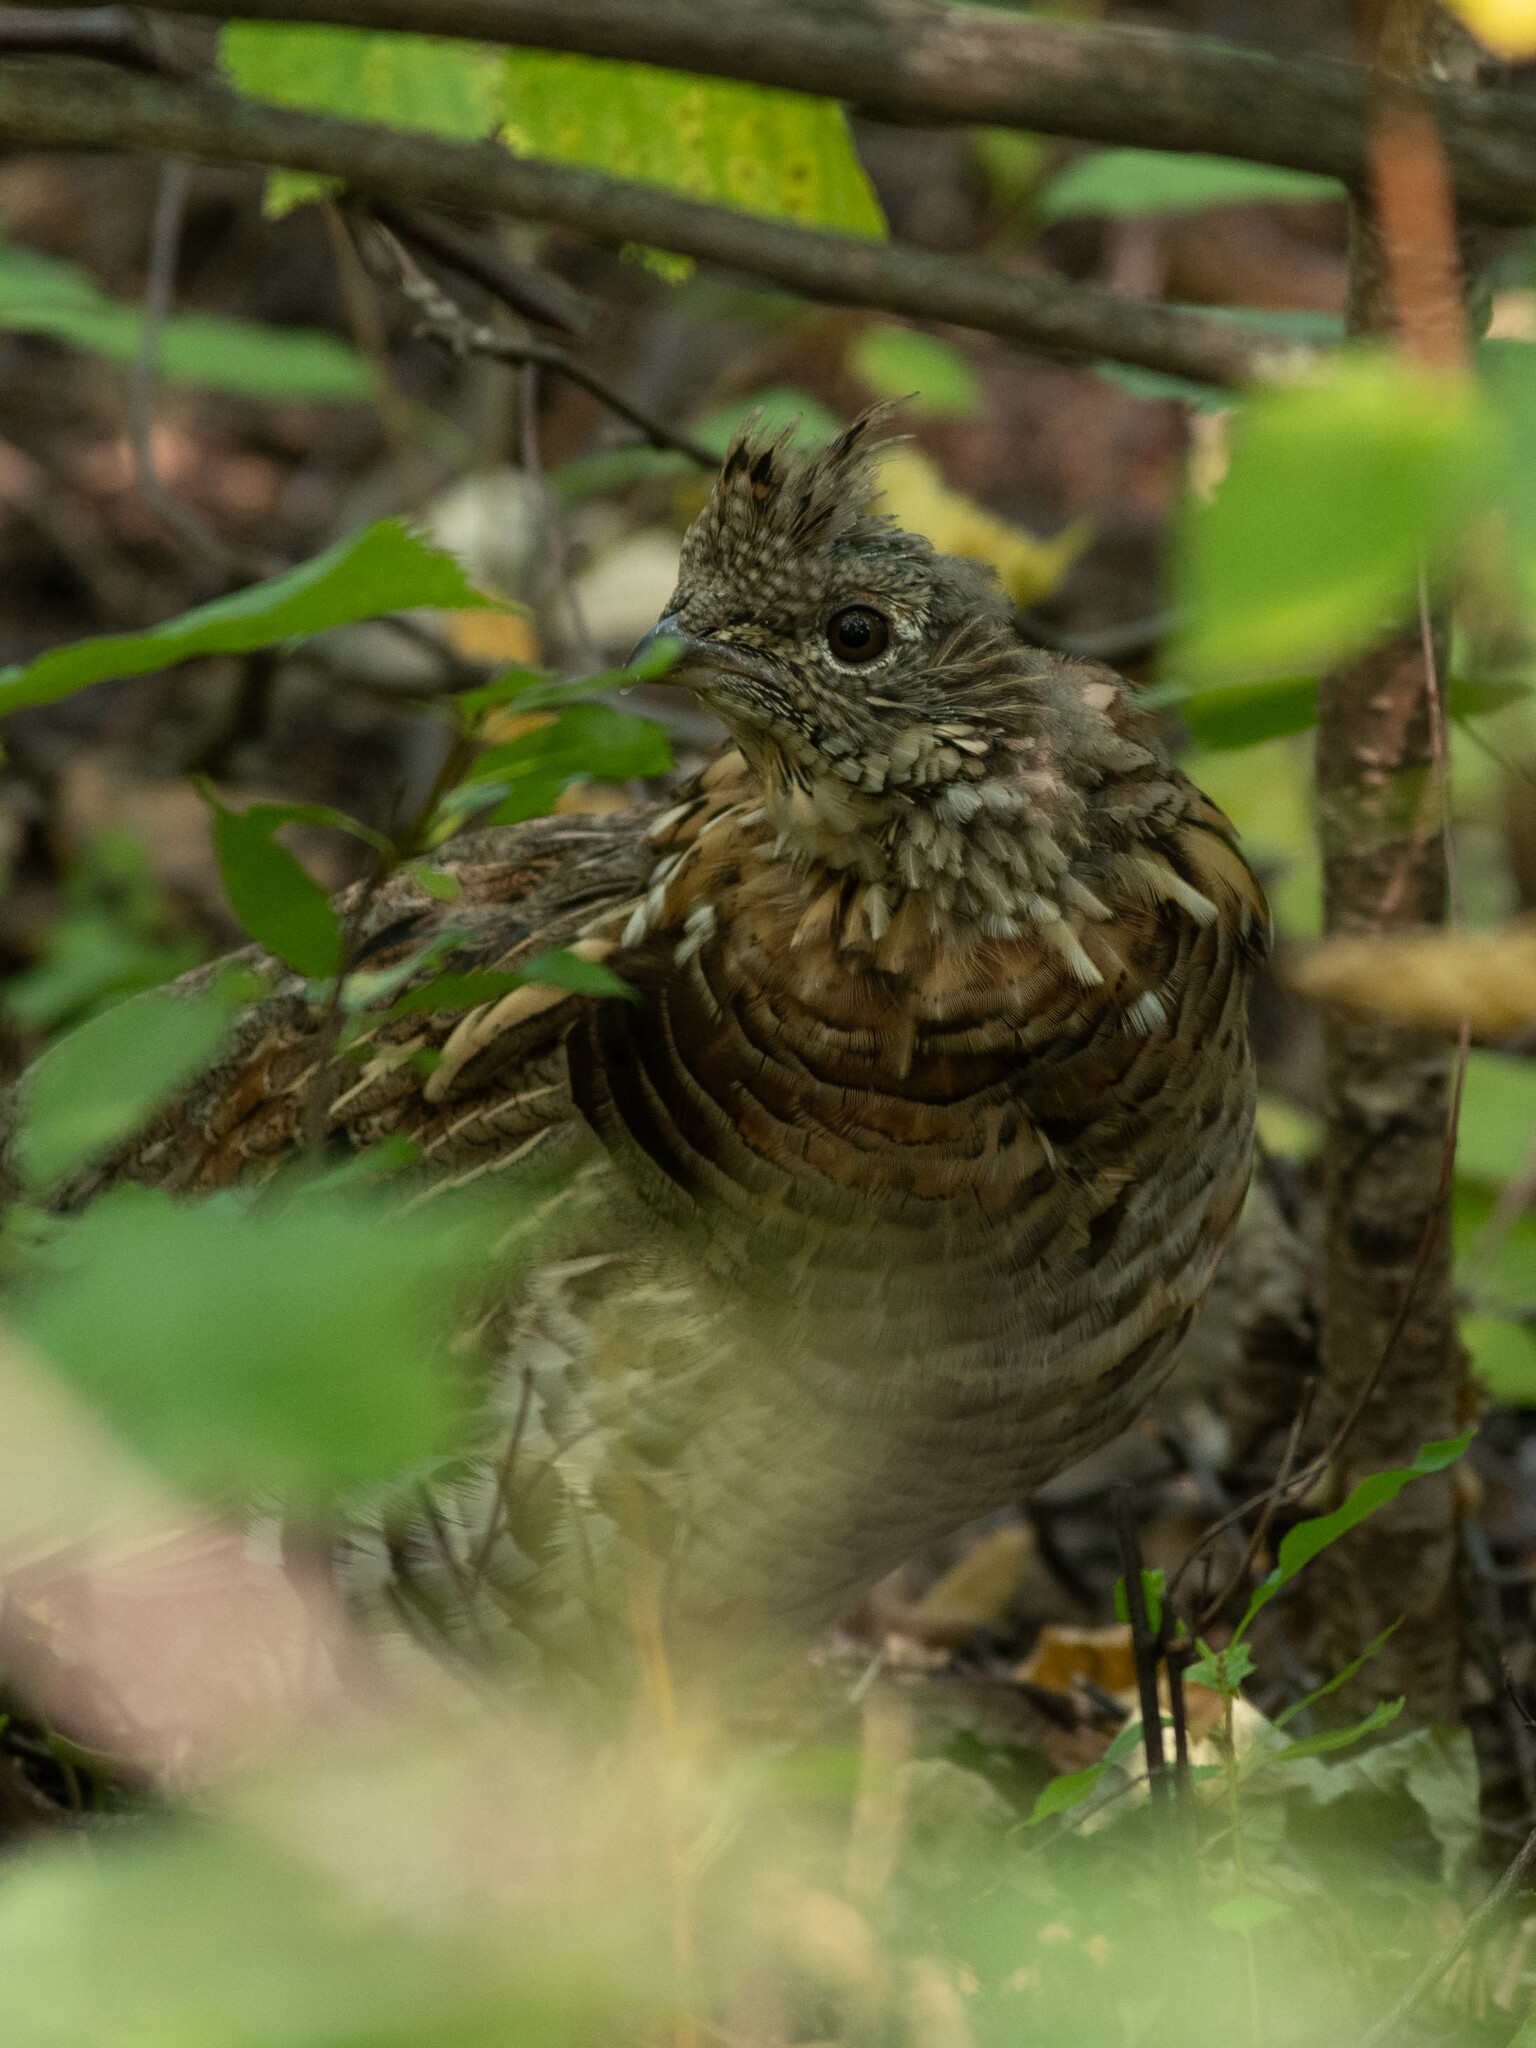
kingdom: Animalia
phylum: Chordata
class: Aves
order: Galliformes
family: Phasianidae
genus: Bonasa
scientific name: Bonasa umbellus
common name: Ruffed grouse
